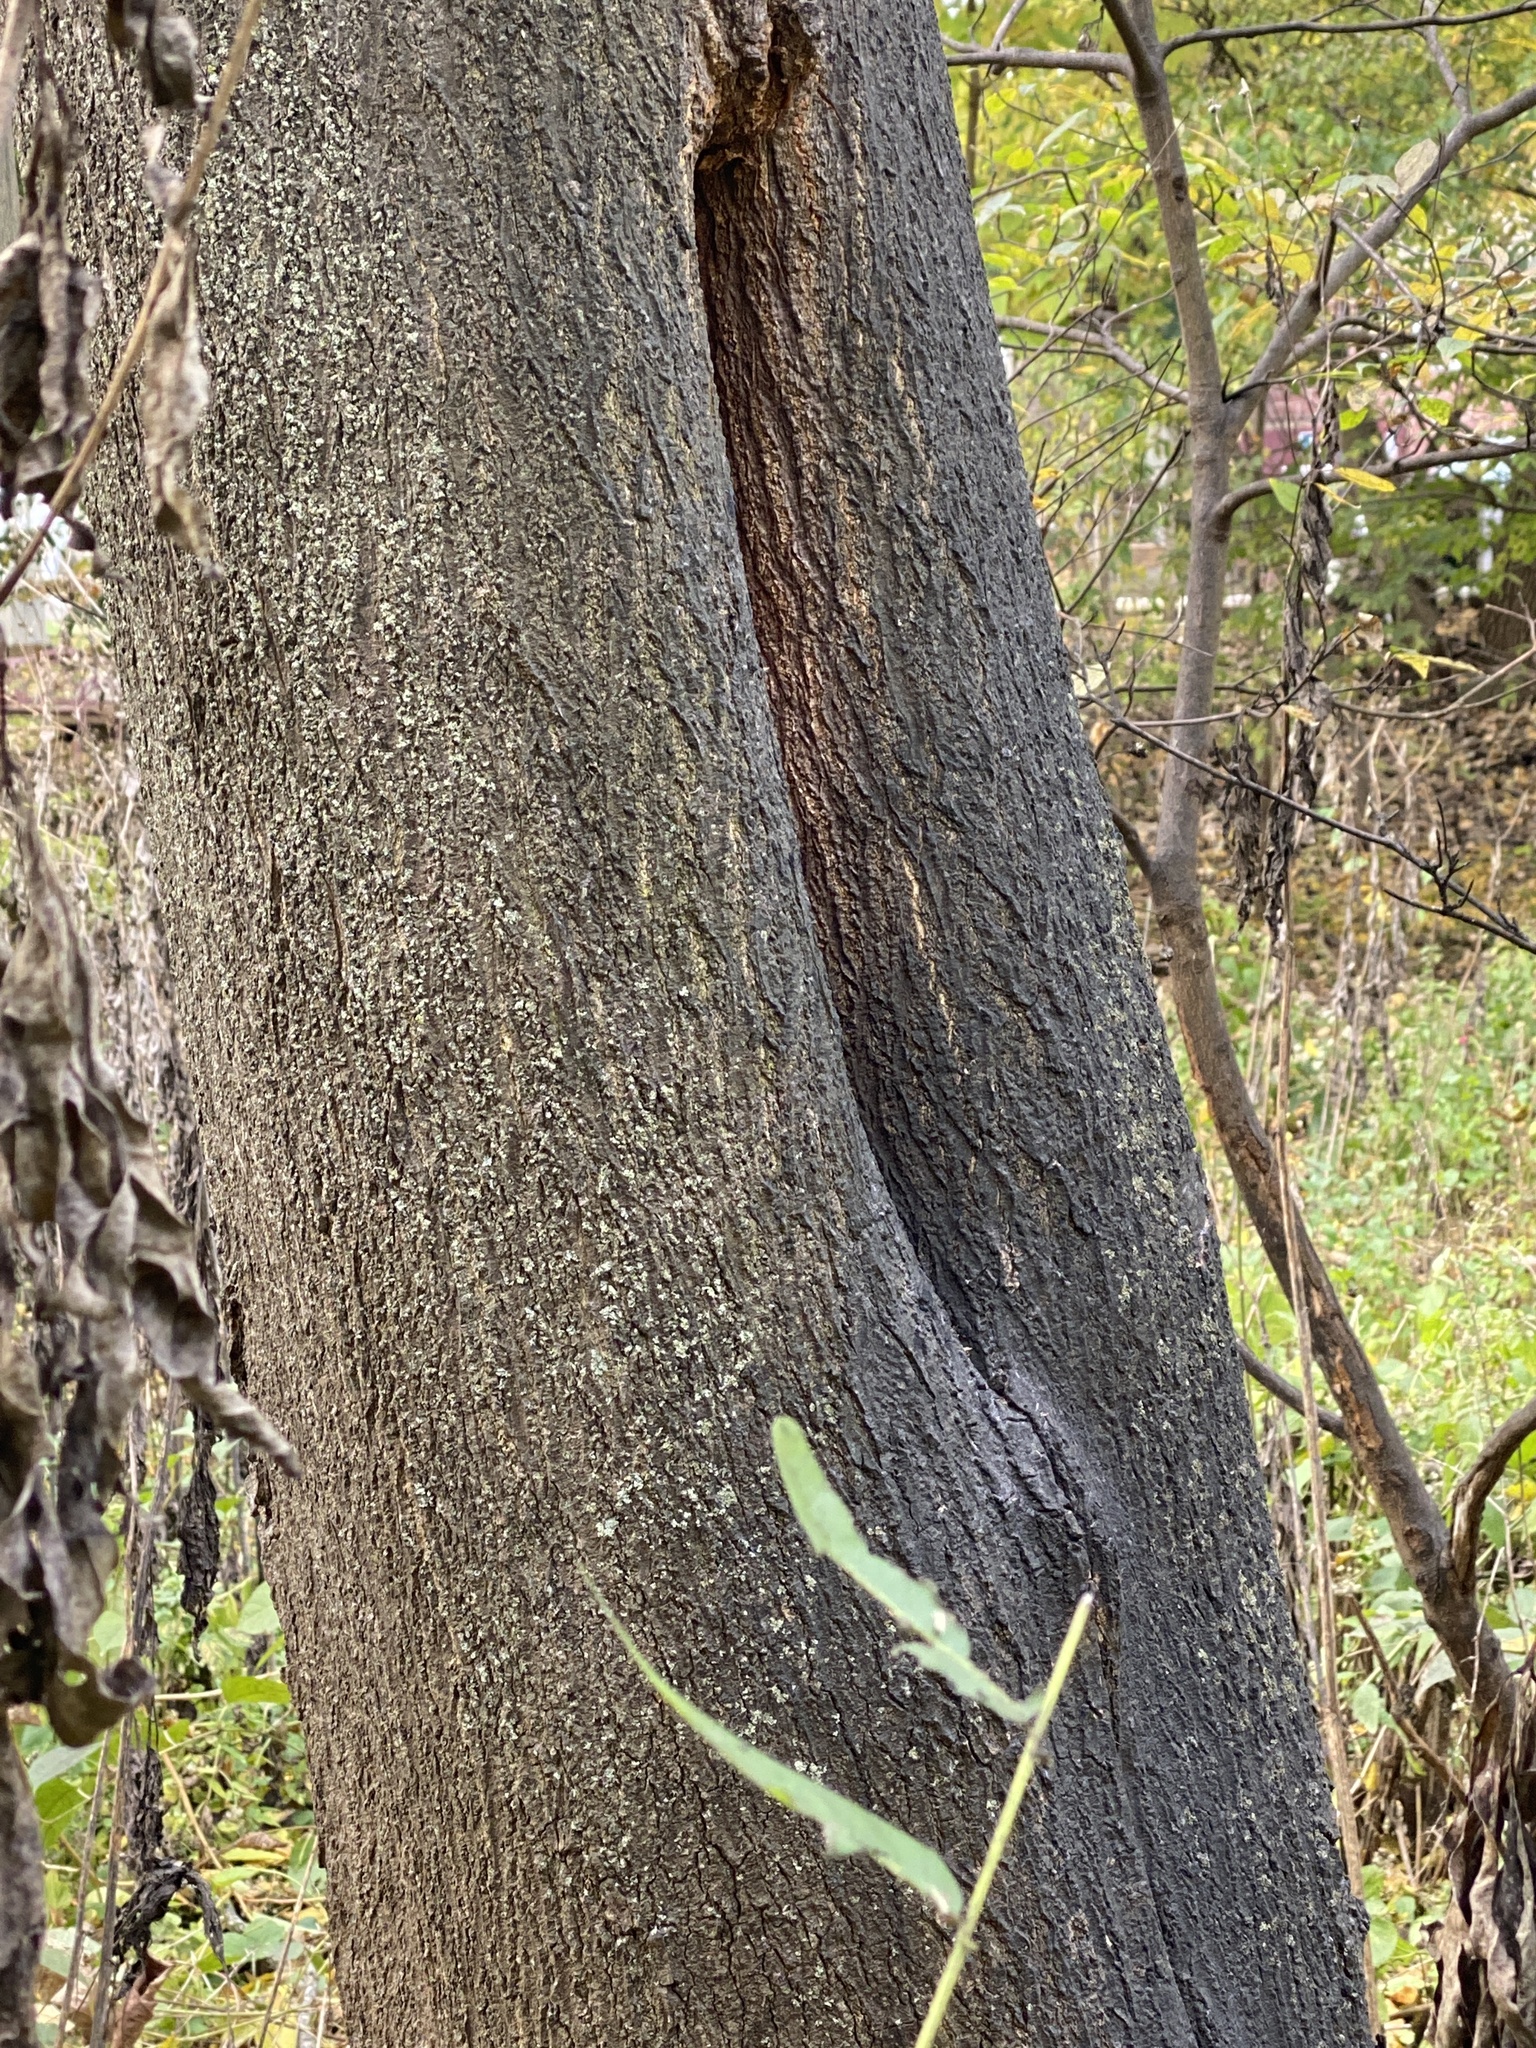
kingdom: Animalia
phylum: Arthropoda
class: Insecta
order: Hymenoptera
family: Apidae
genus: Apis
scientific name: Apis mellifera
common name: Honey bee
